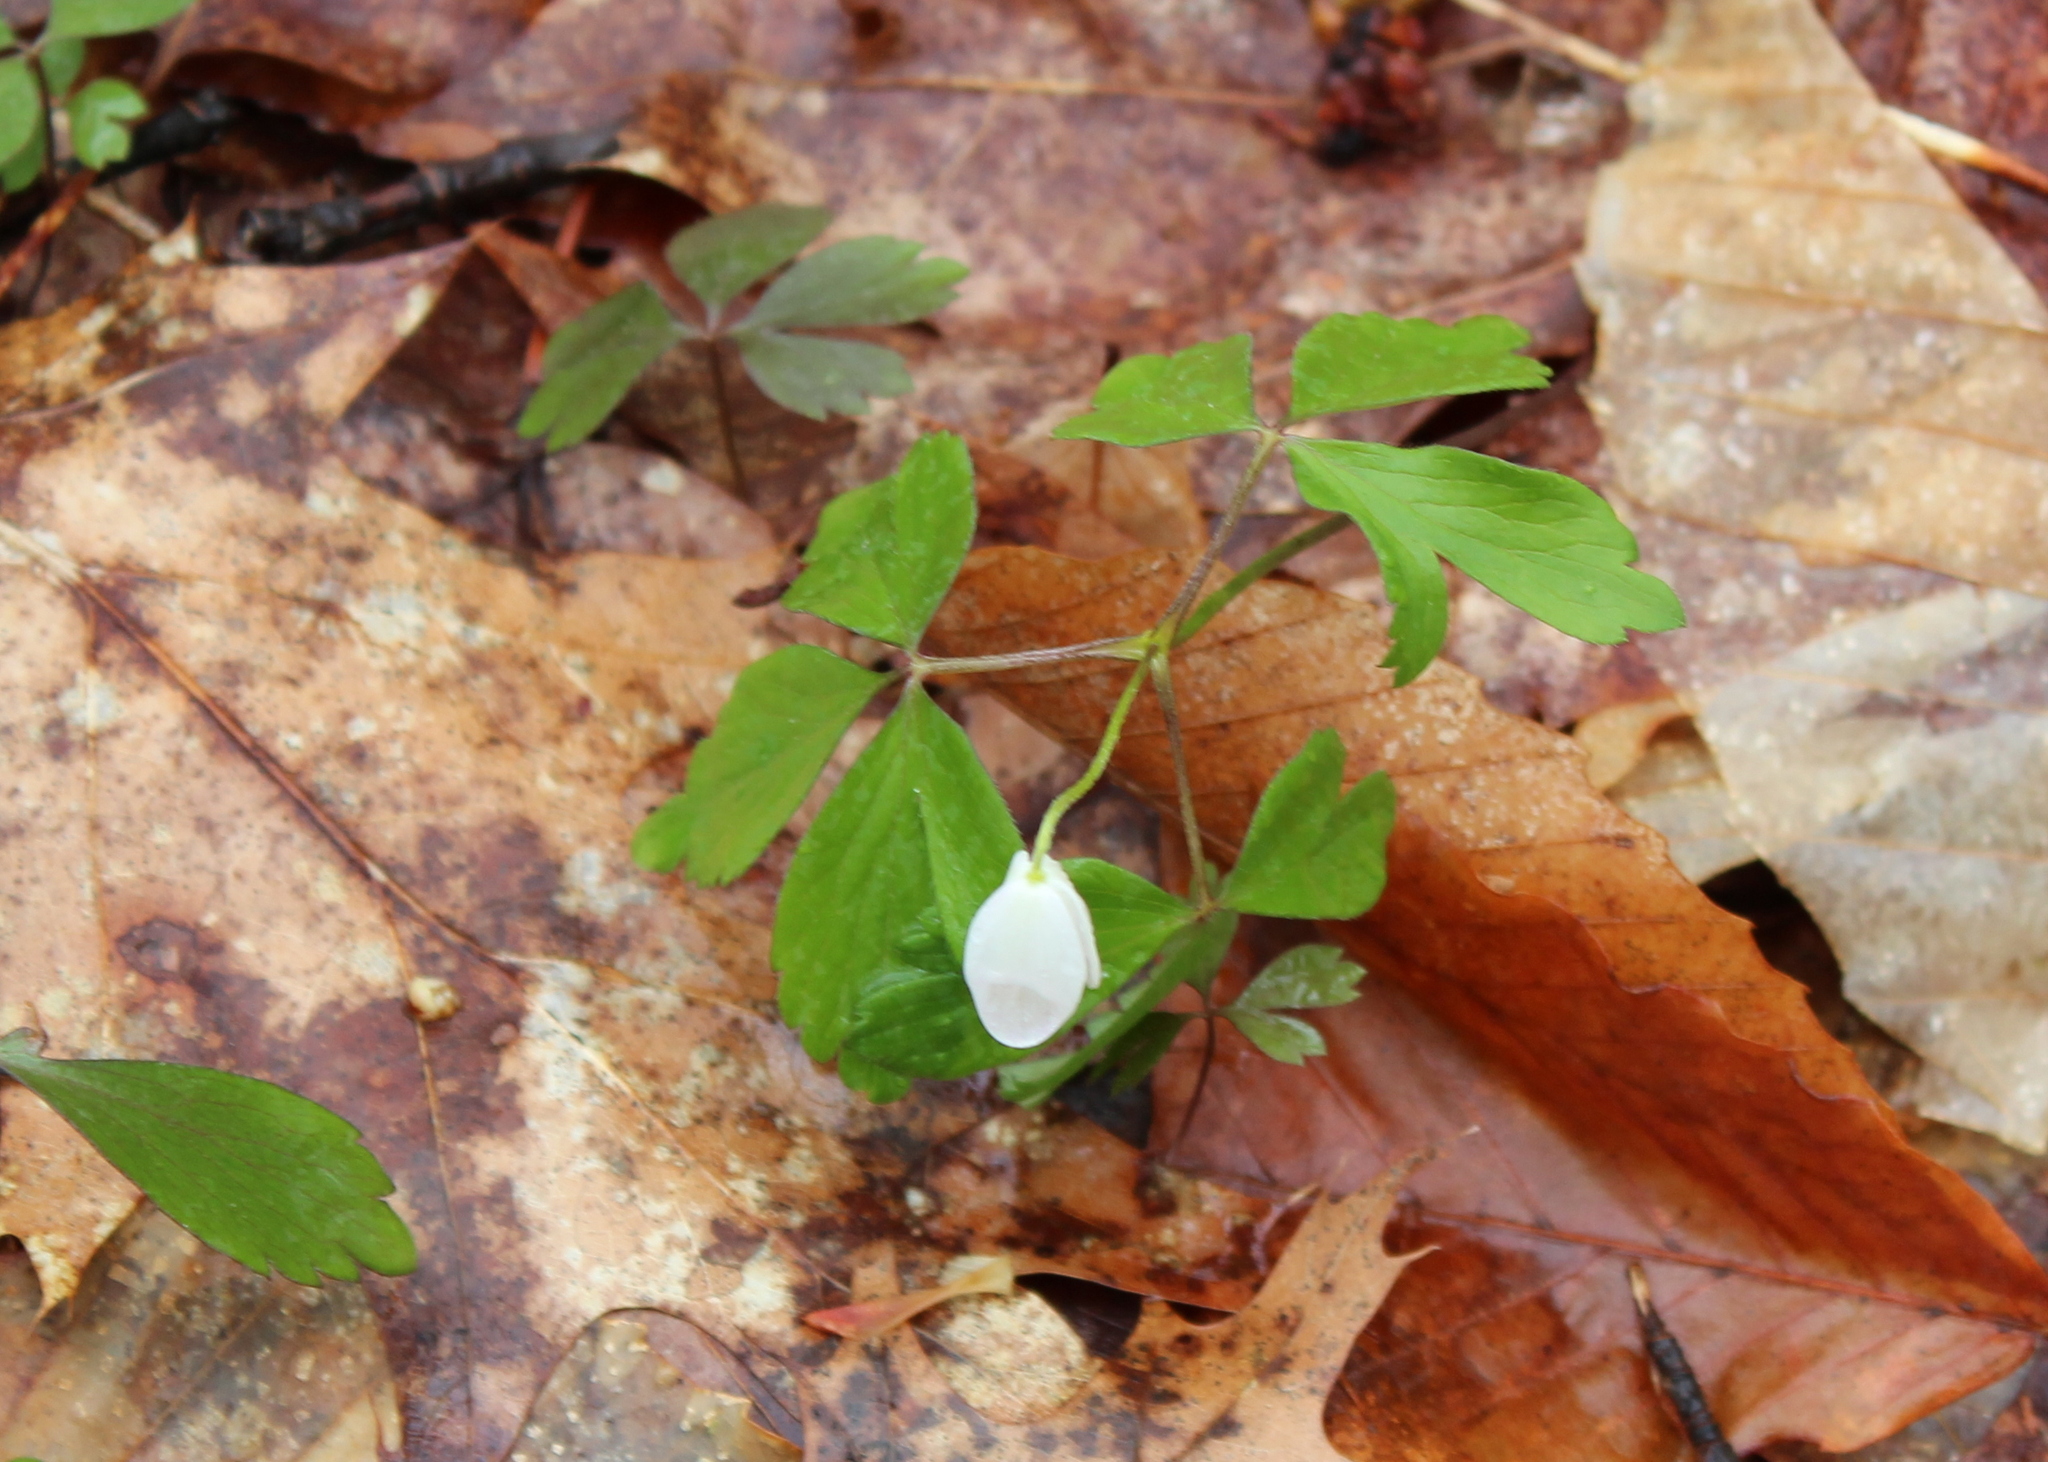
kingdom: Plantae
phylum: Tracheophyta
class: Magnoliopsida
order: Ranunculales
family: Ranunculaceae
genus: Anemone
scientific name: Anemone quinquefolia
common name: Wood anemone
